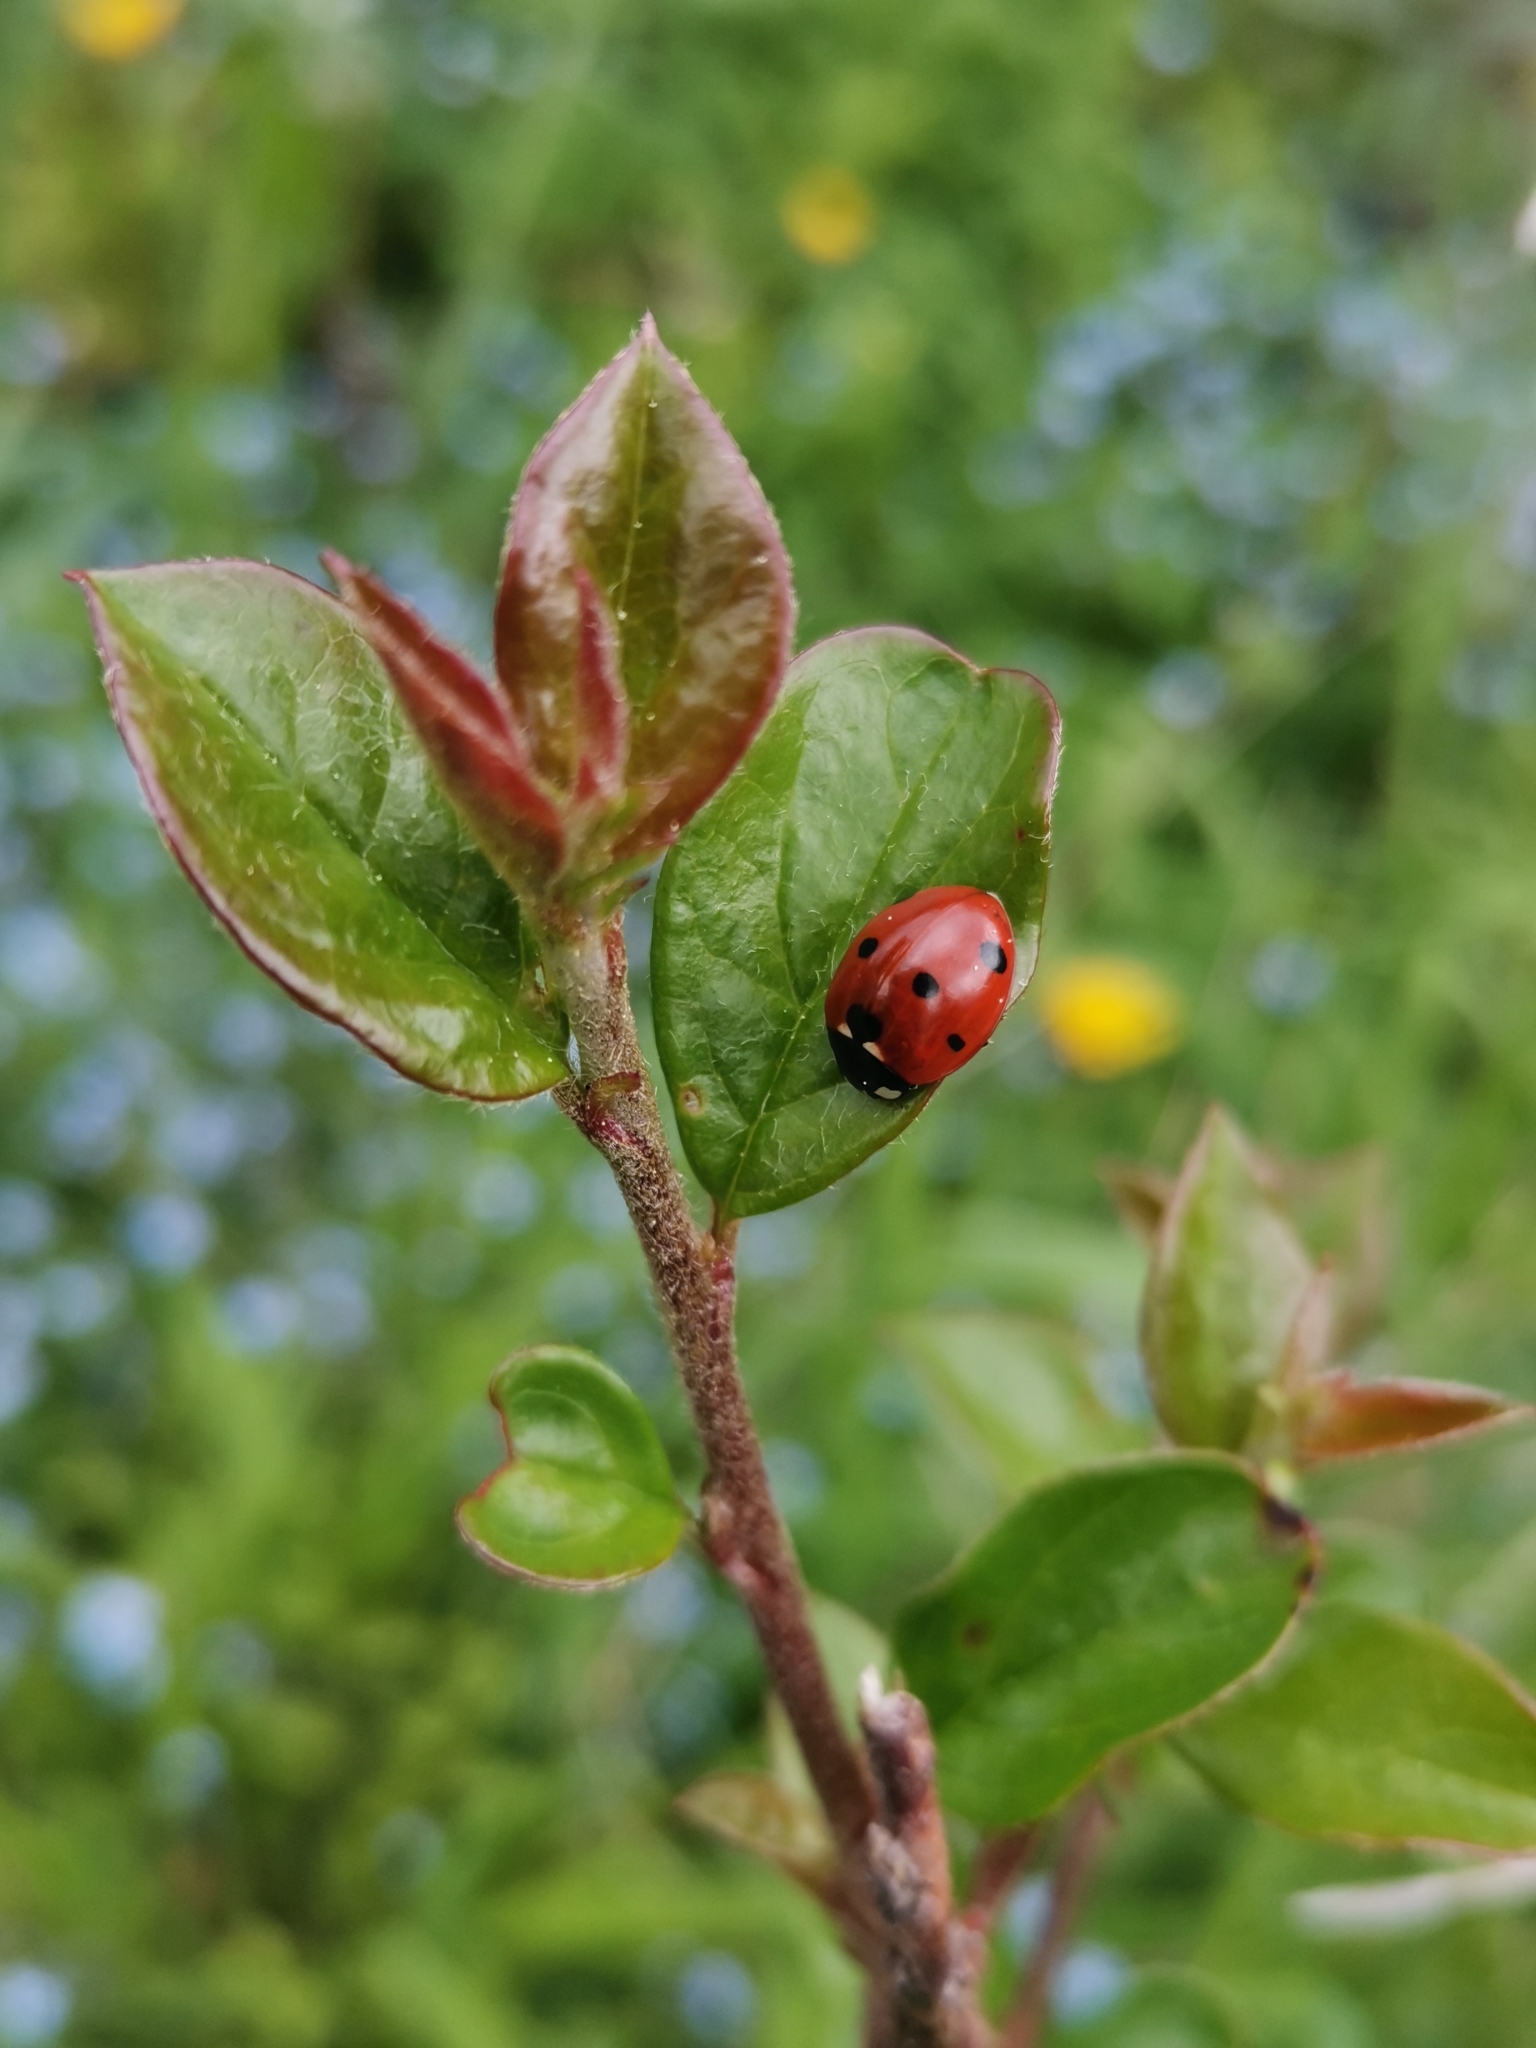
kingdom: Animalia
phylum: Arthropoda
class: Insecta
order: Coleoptera
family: Coccinellidae
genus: Coccinella
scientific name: Coccinella septempunctata
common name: Sevenspotted lady beetle
